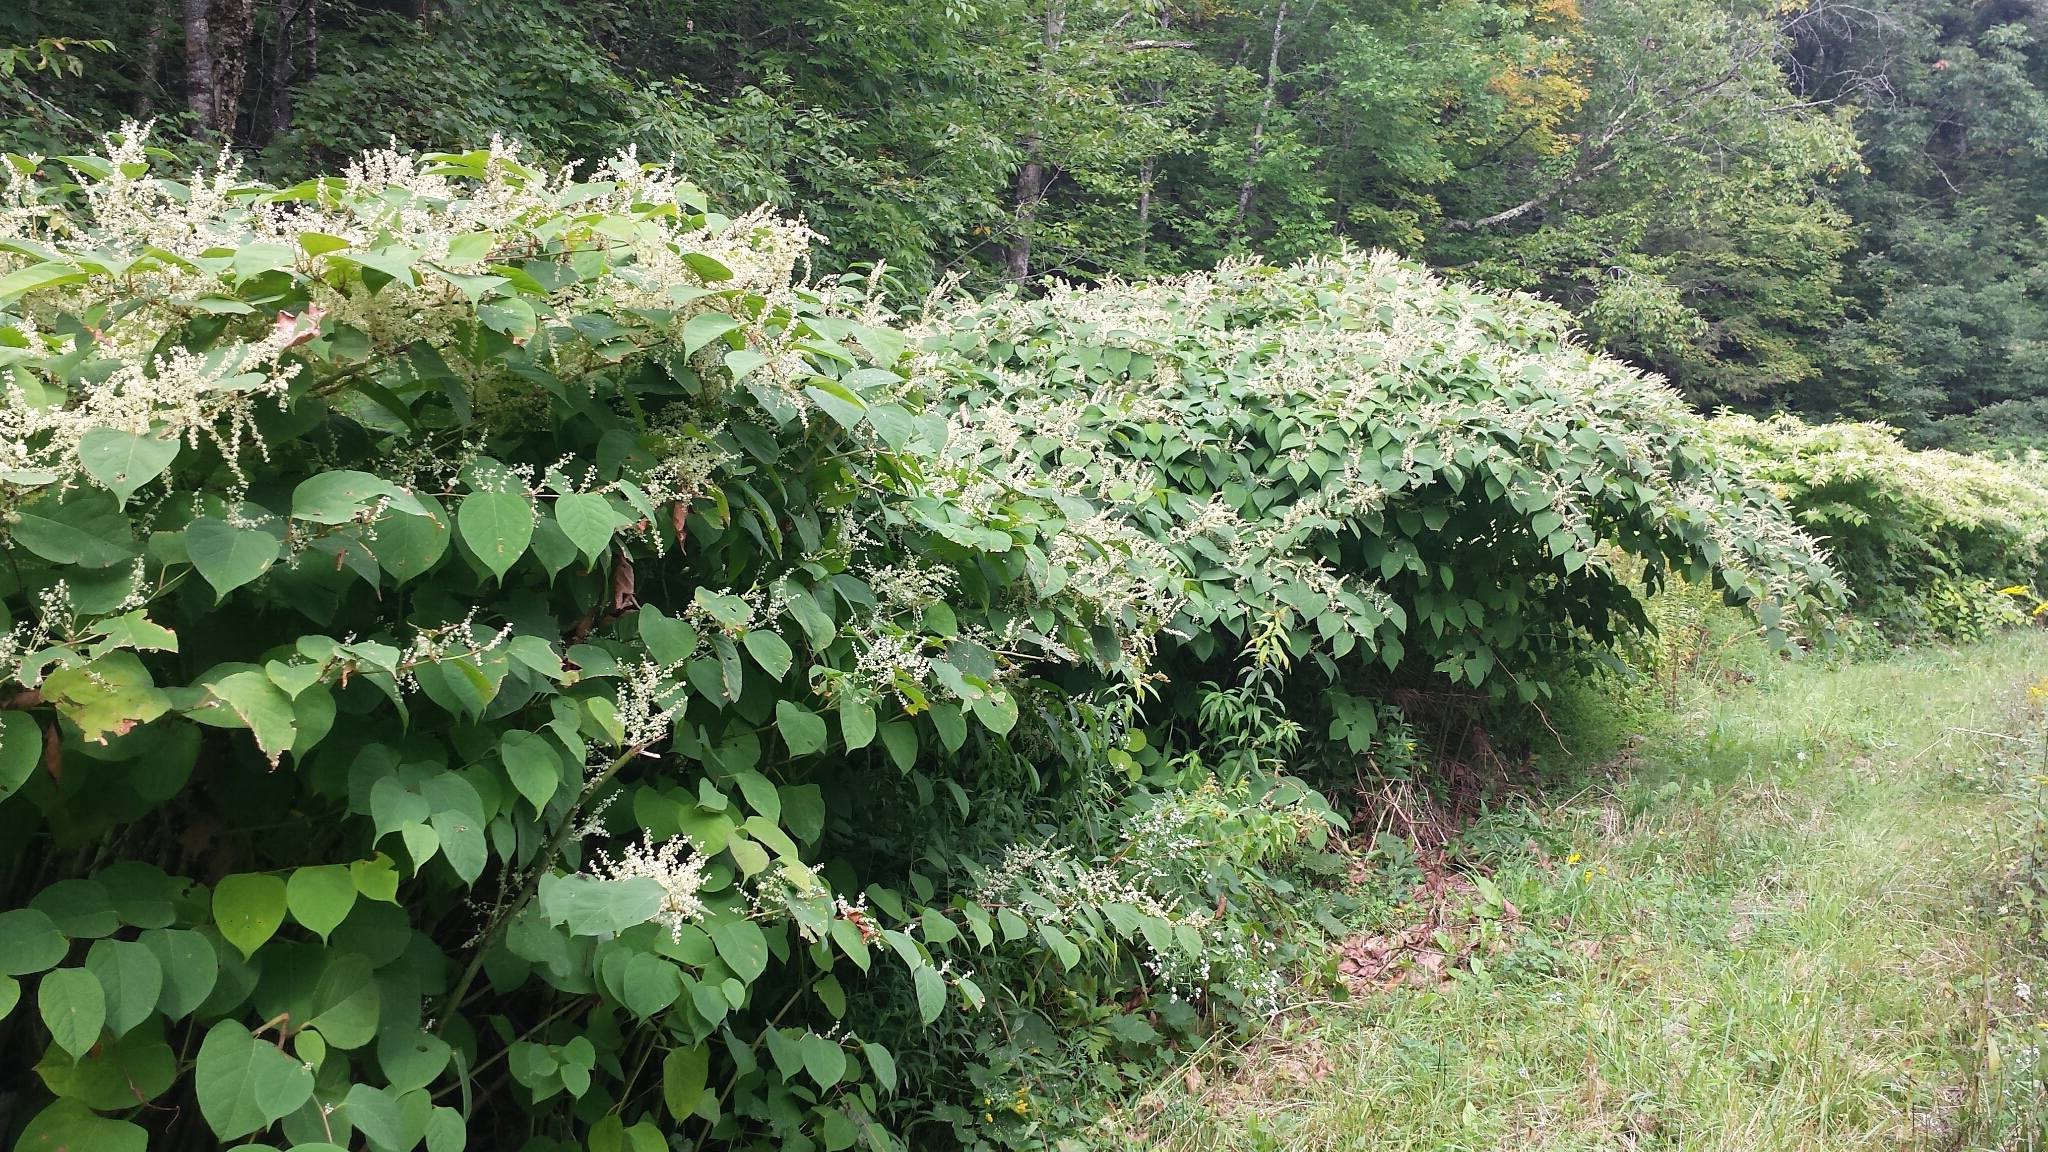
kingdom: Plantae
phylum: Tracheophyta
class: Magnoliopsida
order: Caryophyllales
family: Polygonaceae
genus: Reynoutria
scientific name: Reynoutria japonica
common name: Japanese knotweed
